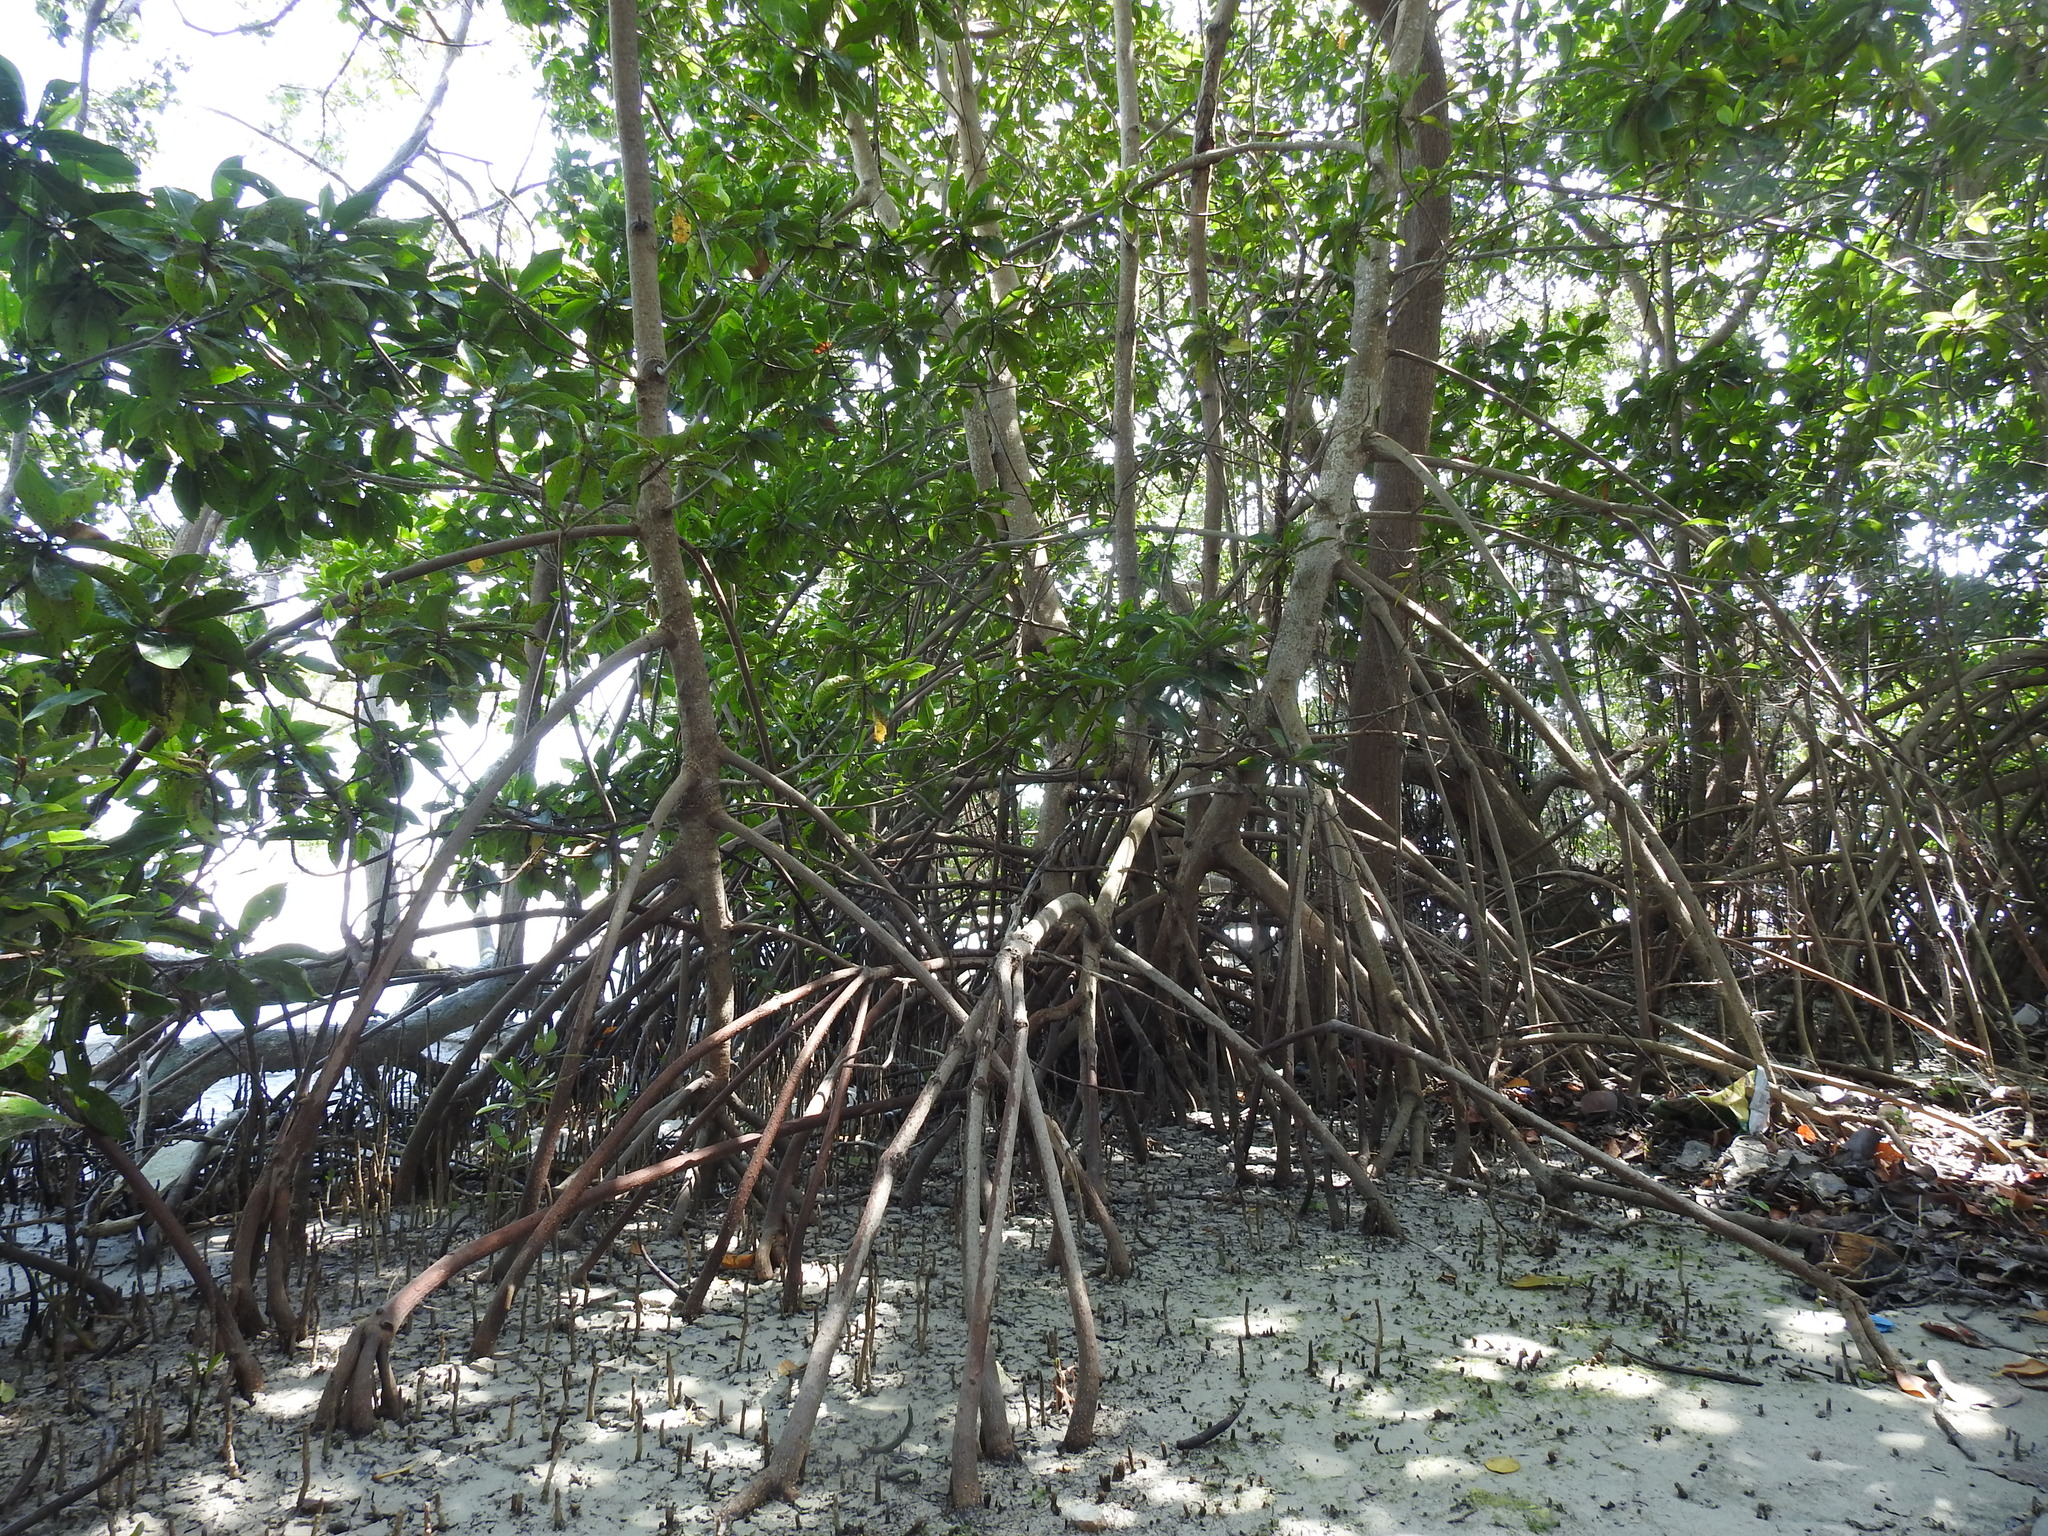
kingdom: Plantae
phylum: Tracheophyta
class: Magnoliopsida
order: Malpighiales
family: Rhizophoraceae
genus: Rhizophora
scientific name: Rhizophora mangle
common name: Red mangrove
